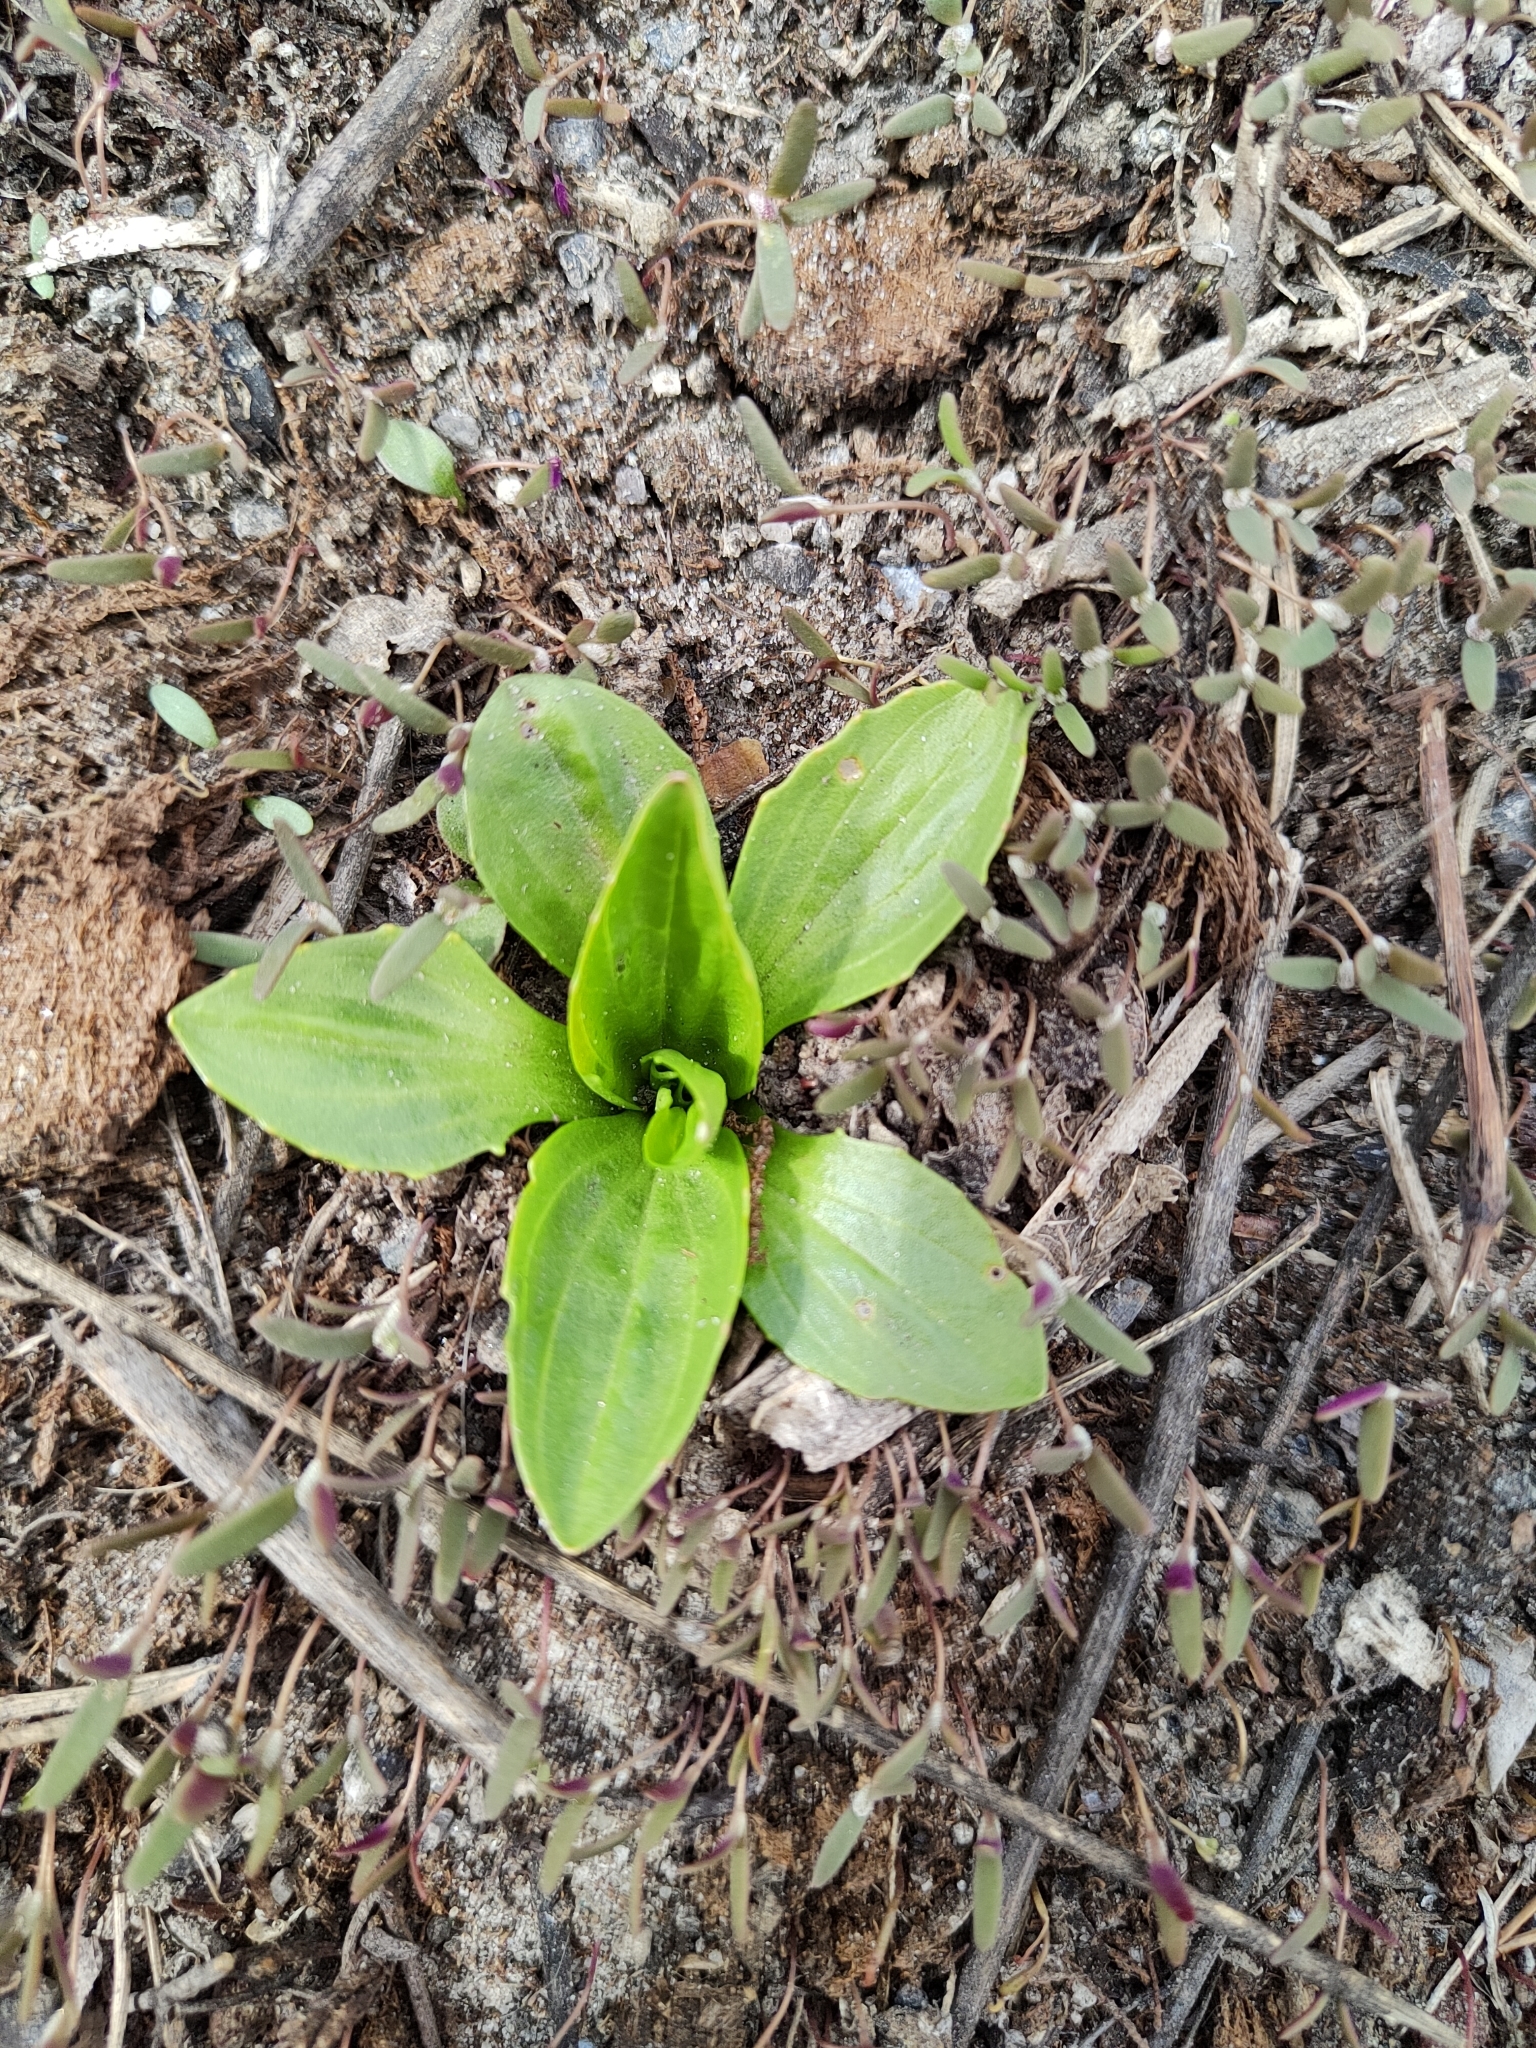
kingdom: Plantae
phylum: Tracheophyta
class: Magnoliopsida
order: Lamiales
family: Plantaginaceae
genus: Plantago
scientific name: Plantago major
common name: Common plantain
